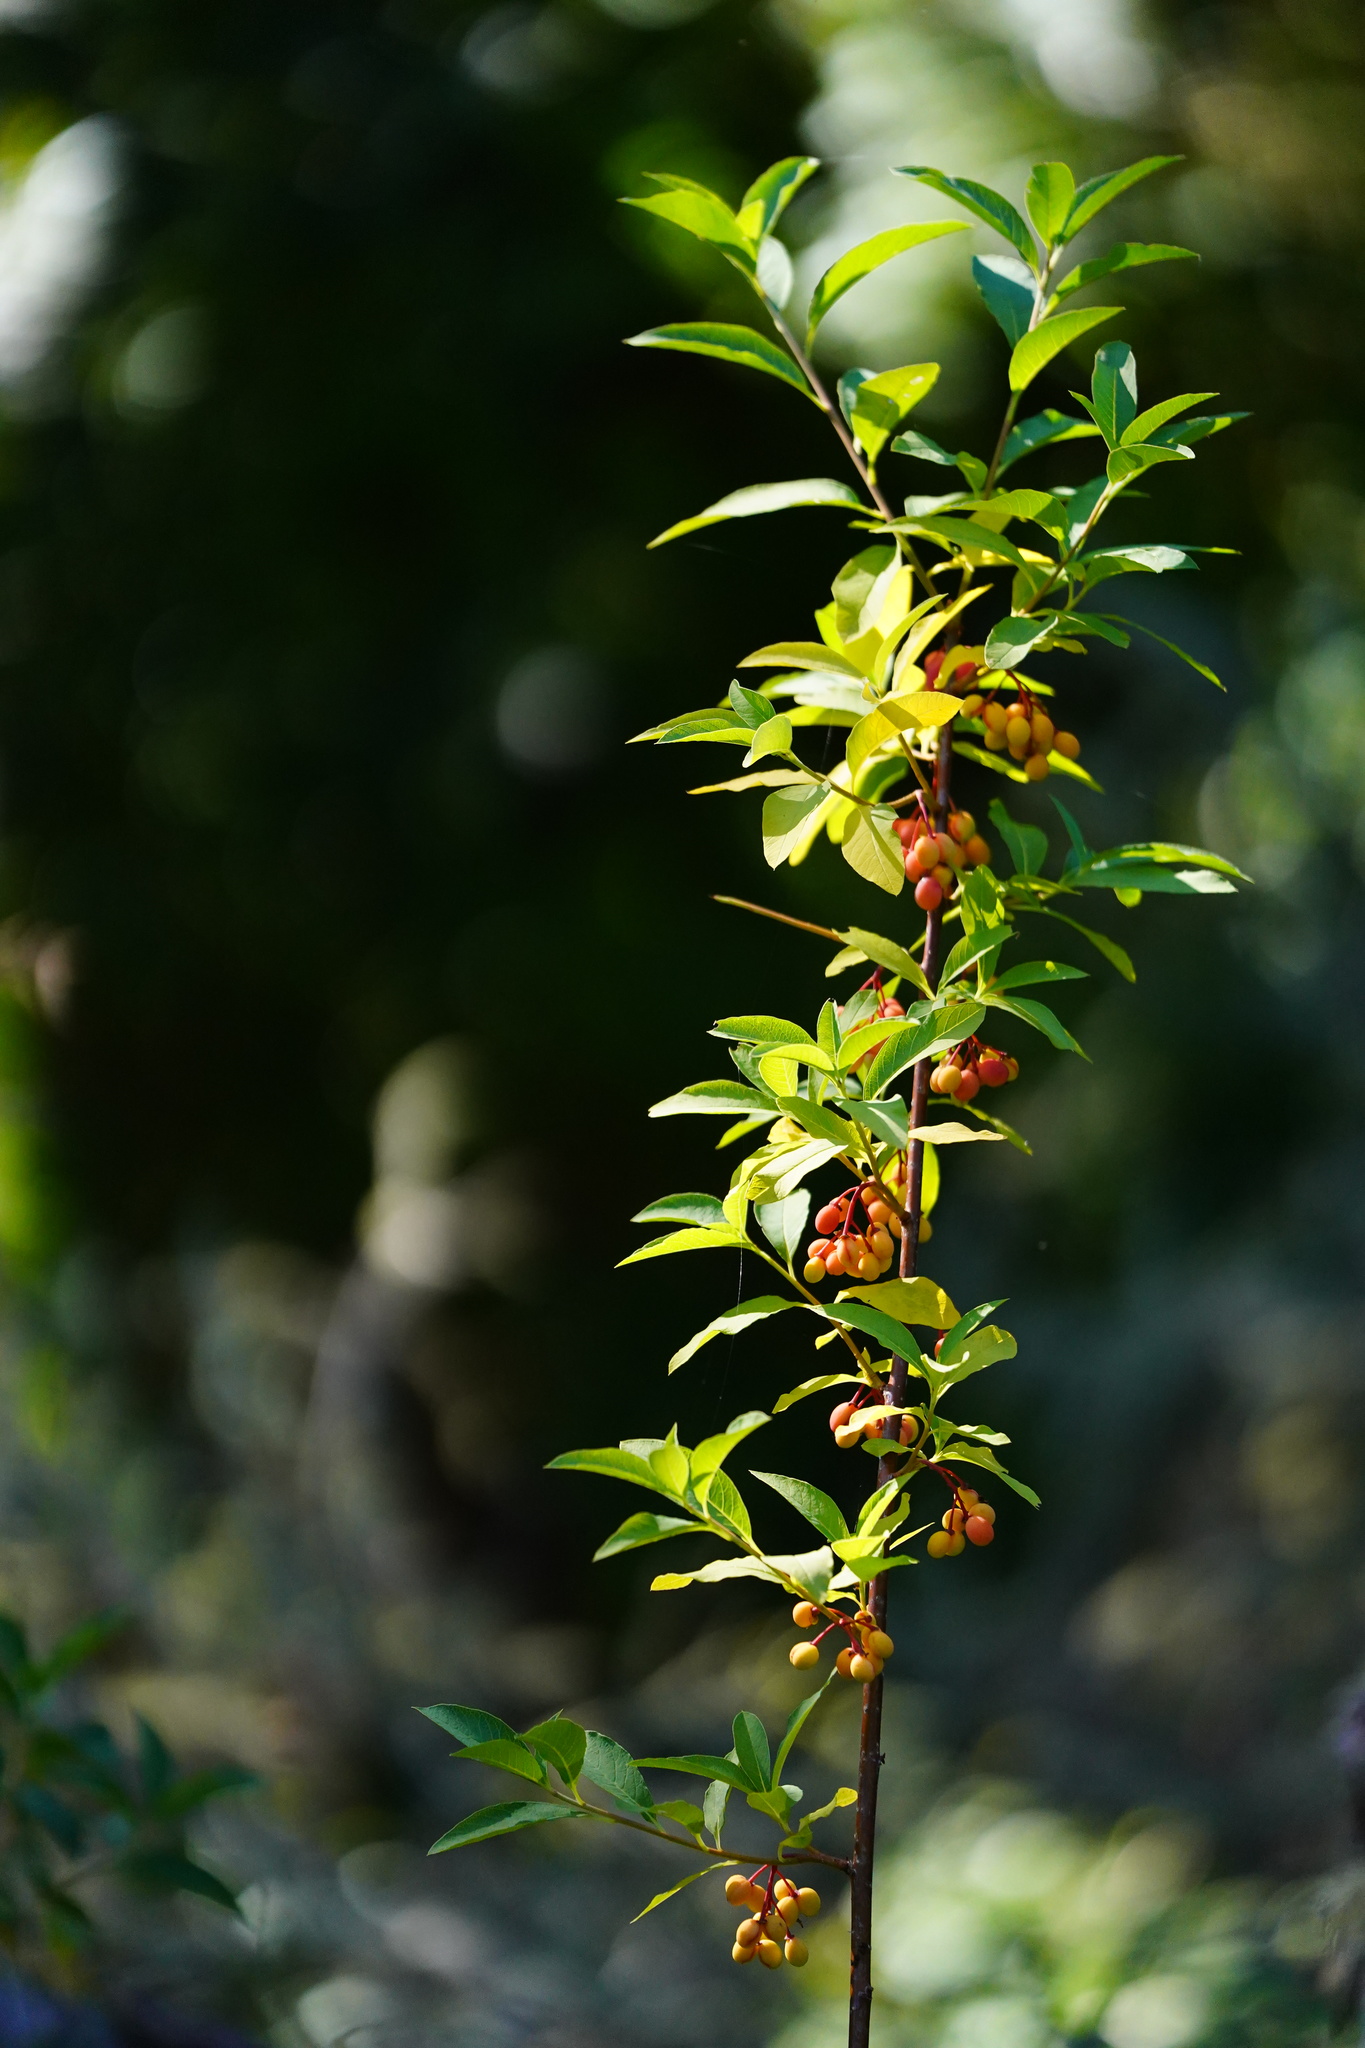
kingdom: Plantae
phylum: Tracheophyta
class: Magnoliopsida
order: Rosales
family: Rosaceae
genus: Oemleria
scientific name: Oemleria cerasiformis
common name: Osoberry
